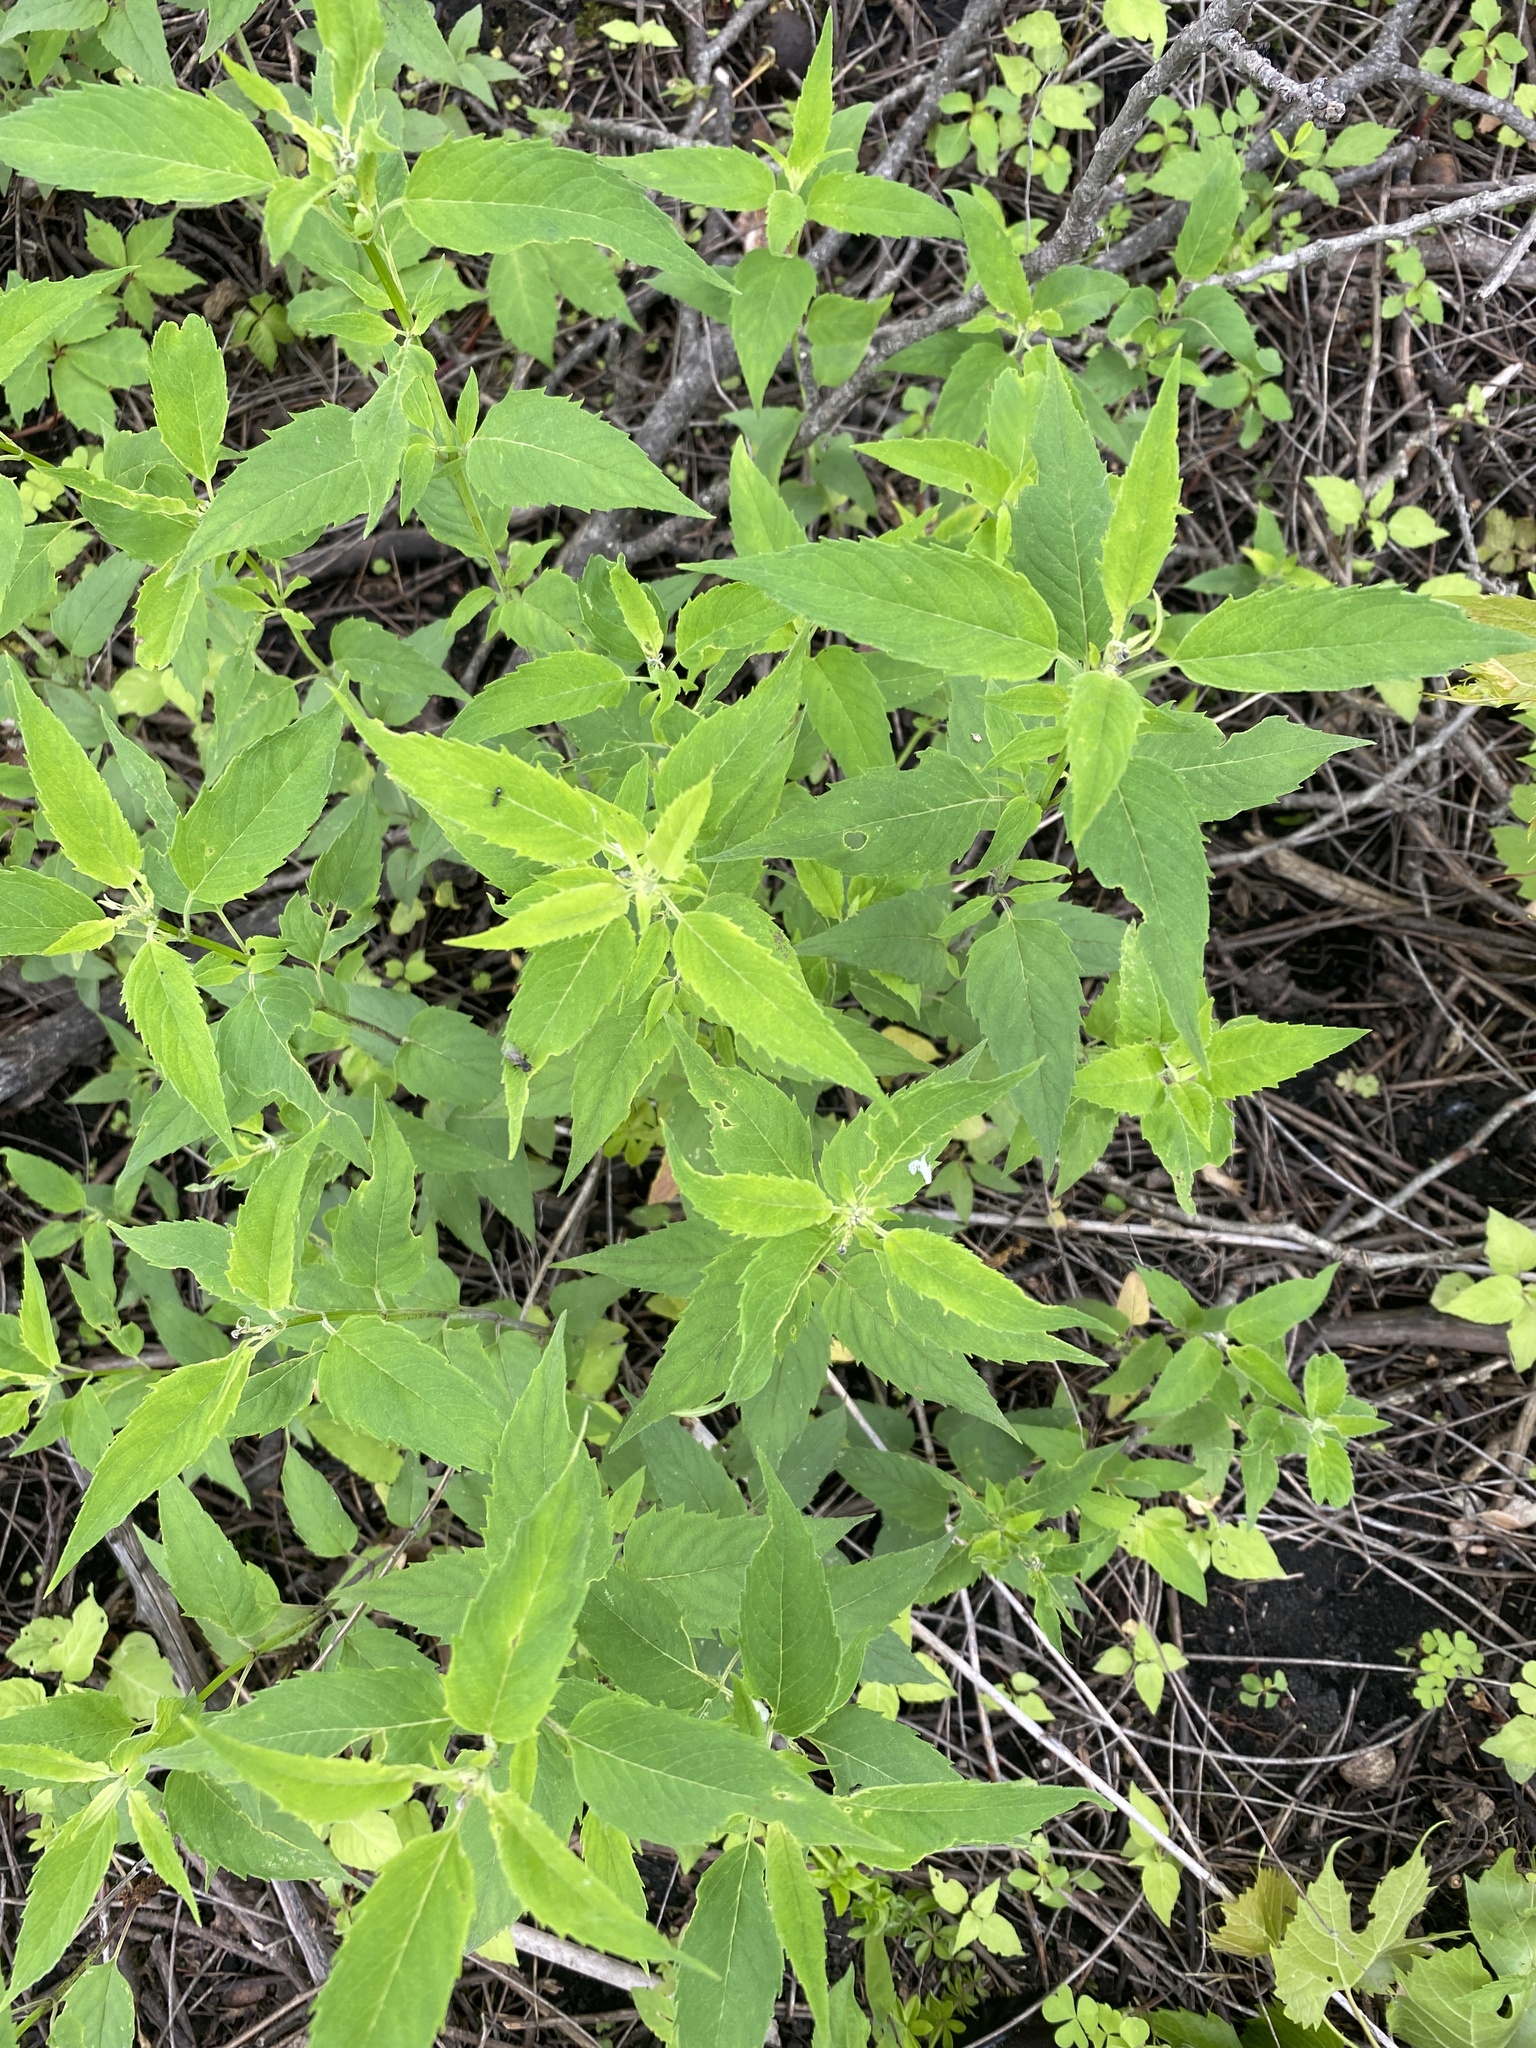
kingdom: Plantae
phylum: Tracheophyta
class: Magnoliopsida
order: Lamiales
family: Lamiaceae
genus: Monarda
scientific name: Monarda fistulosa
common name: Purple beebalm
